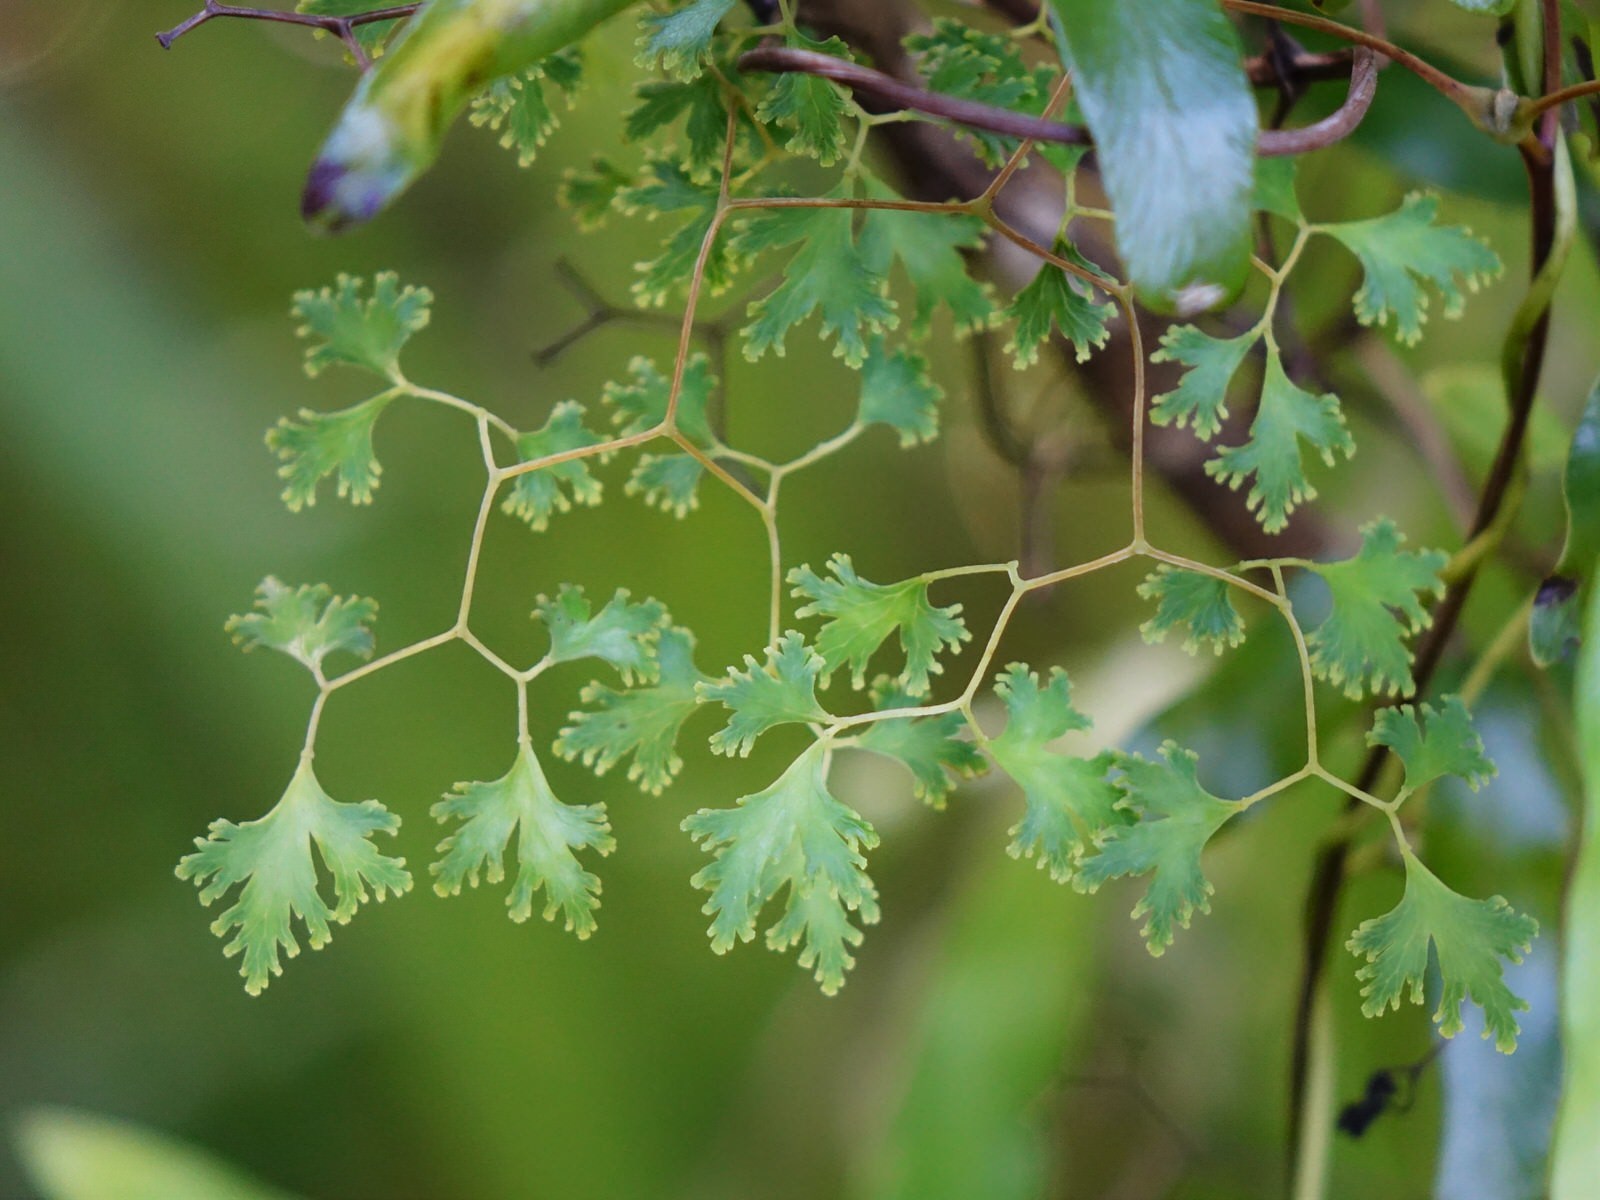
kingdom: Plantae
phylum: Tracheophyta
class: Polypodiopsida
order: Schizaeales
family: Lygodiaceae
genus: Lygodium
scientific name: Lygodium articulatum
